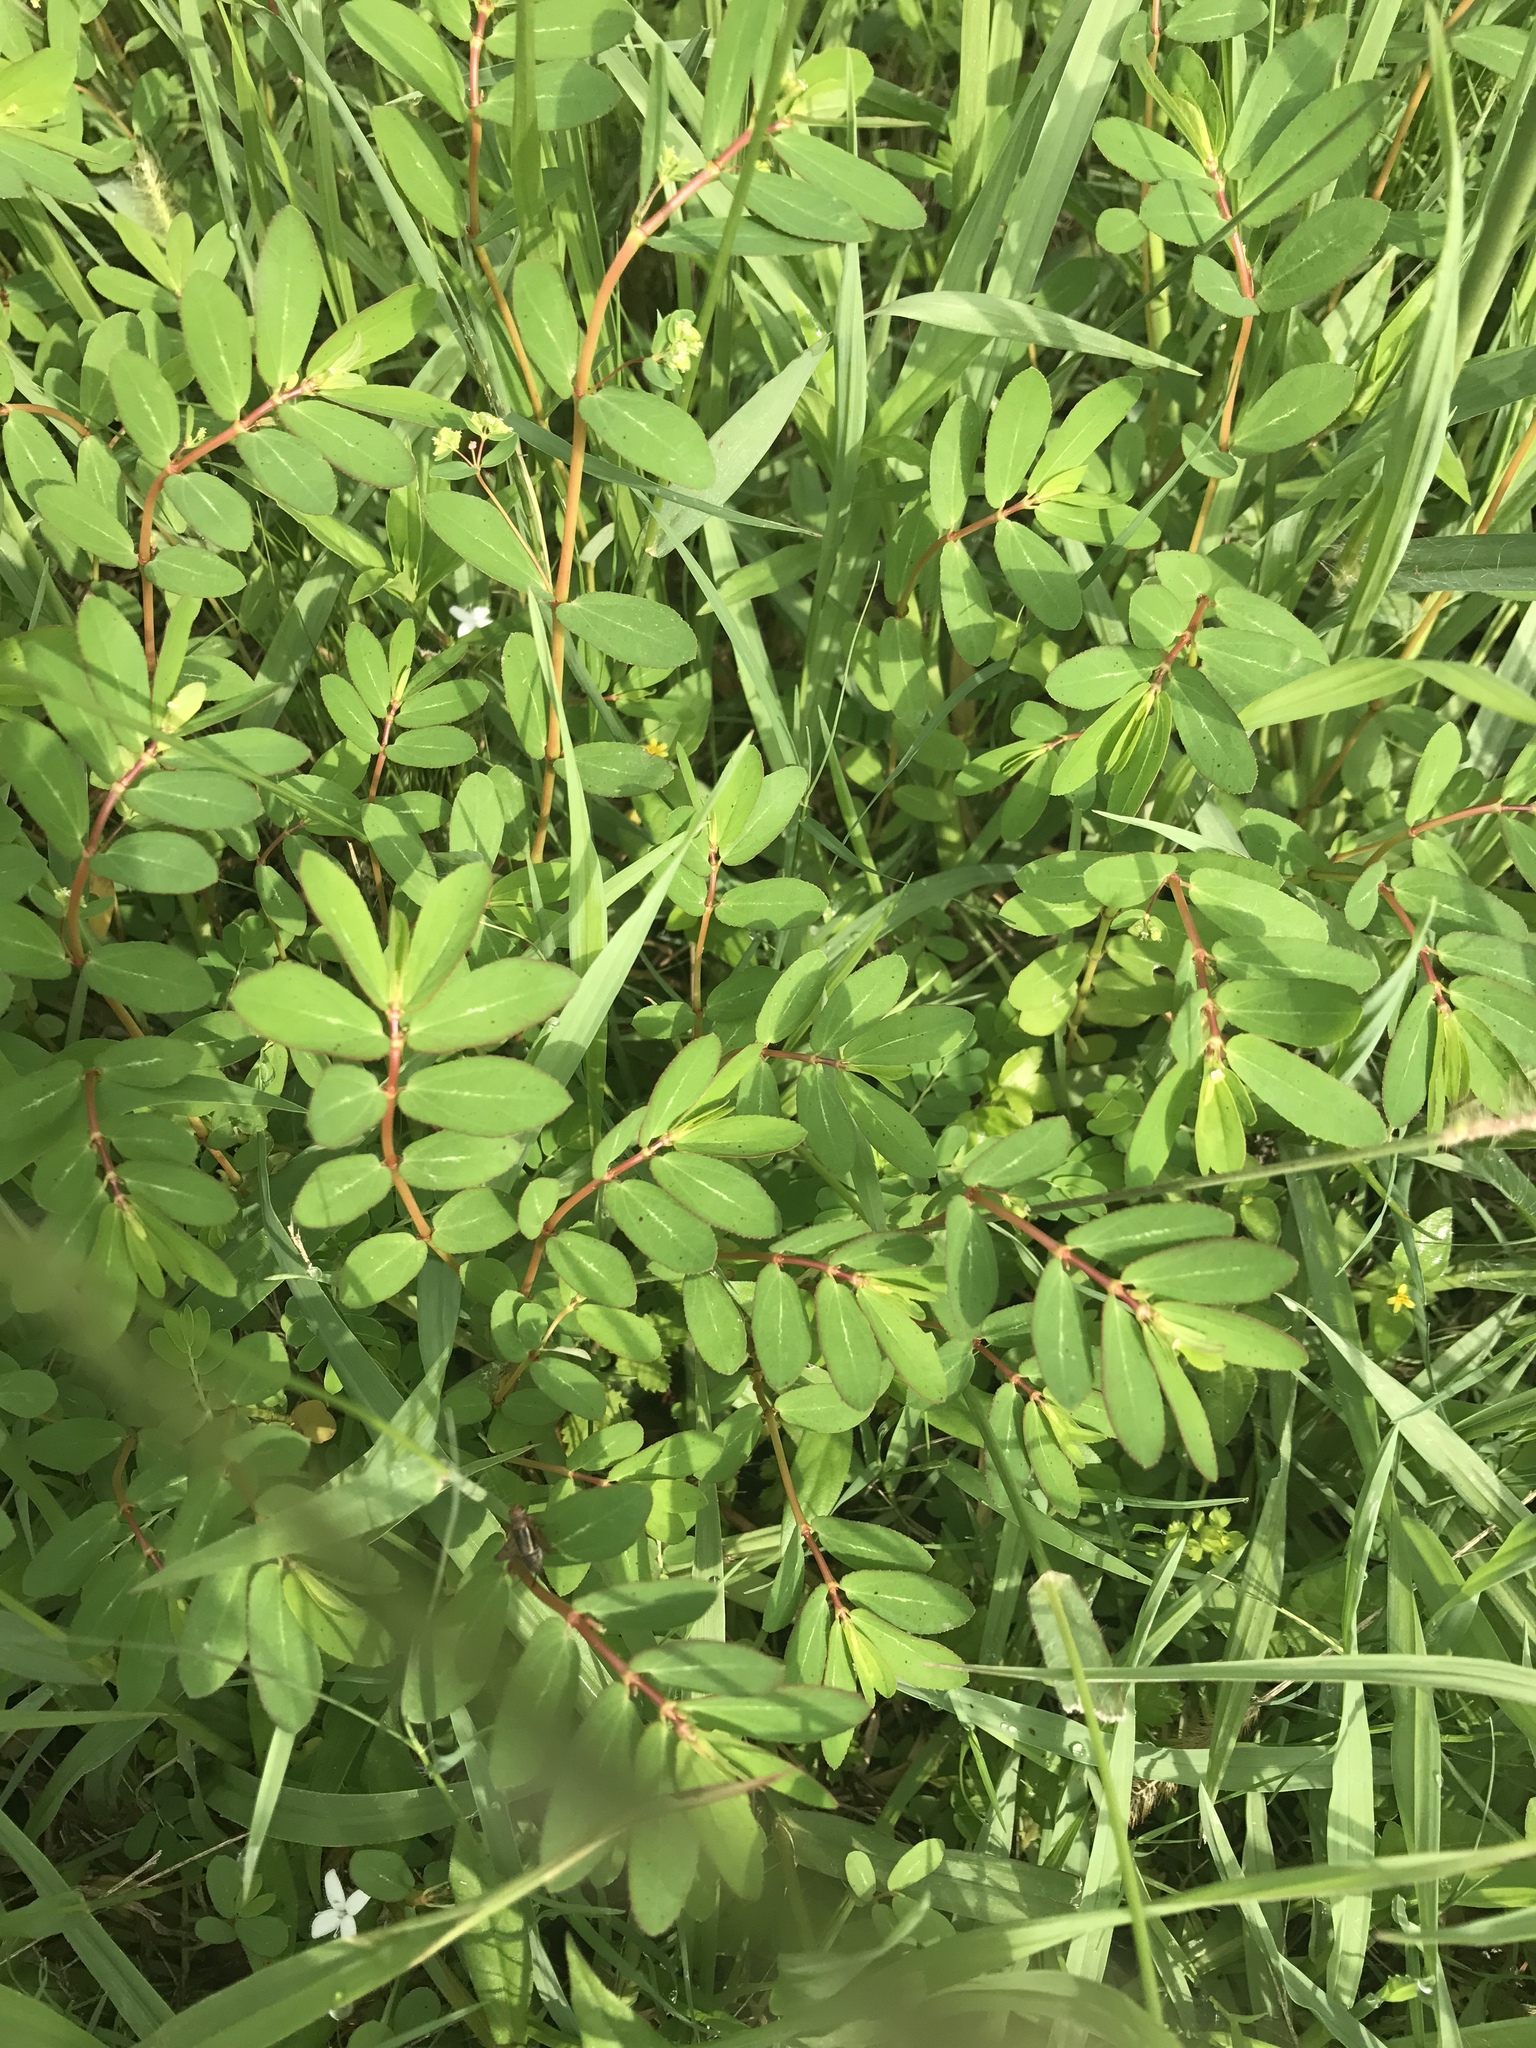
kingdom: Plantae
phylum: Tracheophyta
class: Magnoliopsida
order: Malpighiales
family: Euphorbiaceae
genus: Euphorbia
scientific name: Euphorbia hyssopifolia
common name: Hyssopleaf sandmat
